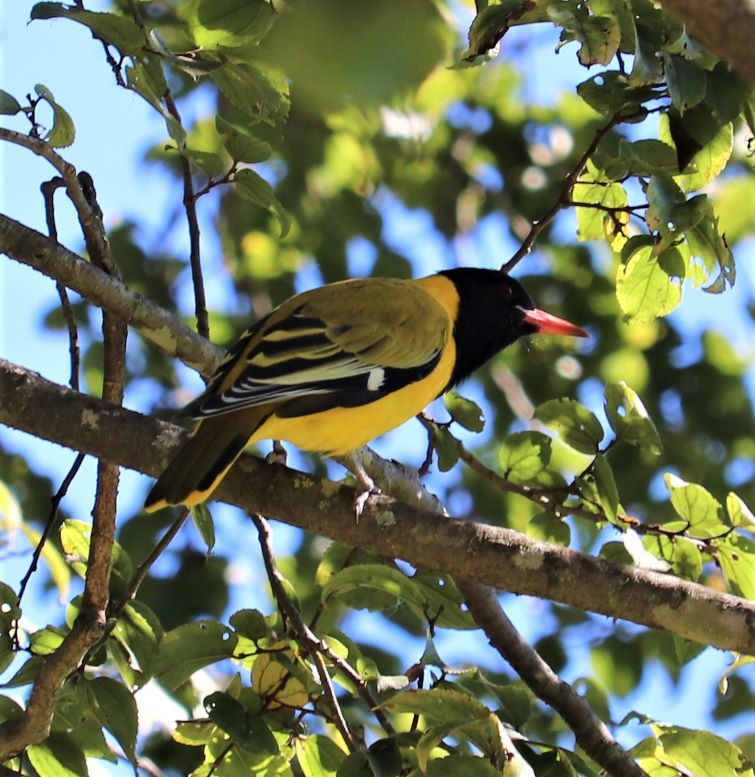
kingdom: Animalia
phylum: Chordata
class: Aves
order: Passeriformes
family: Oriolidae
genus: Oriolus
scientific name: Oriolus larvatus
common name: Black-headed oriole
